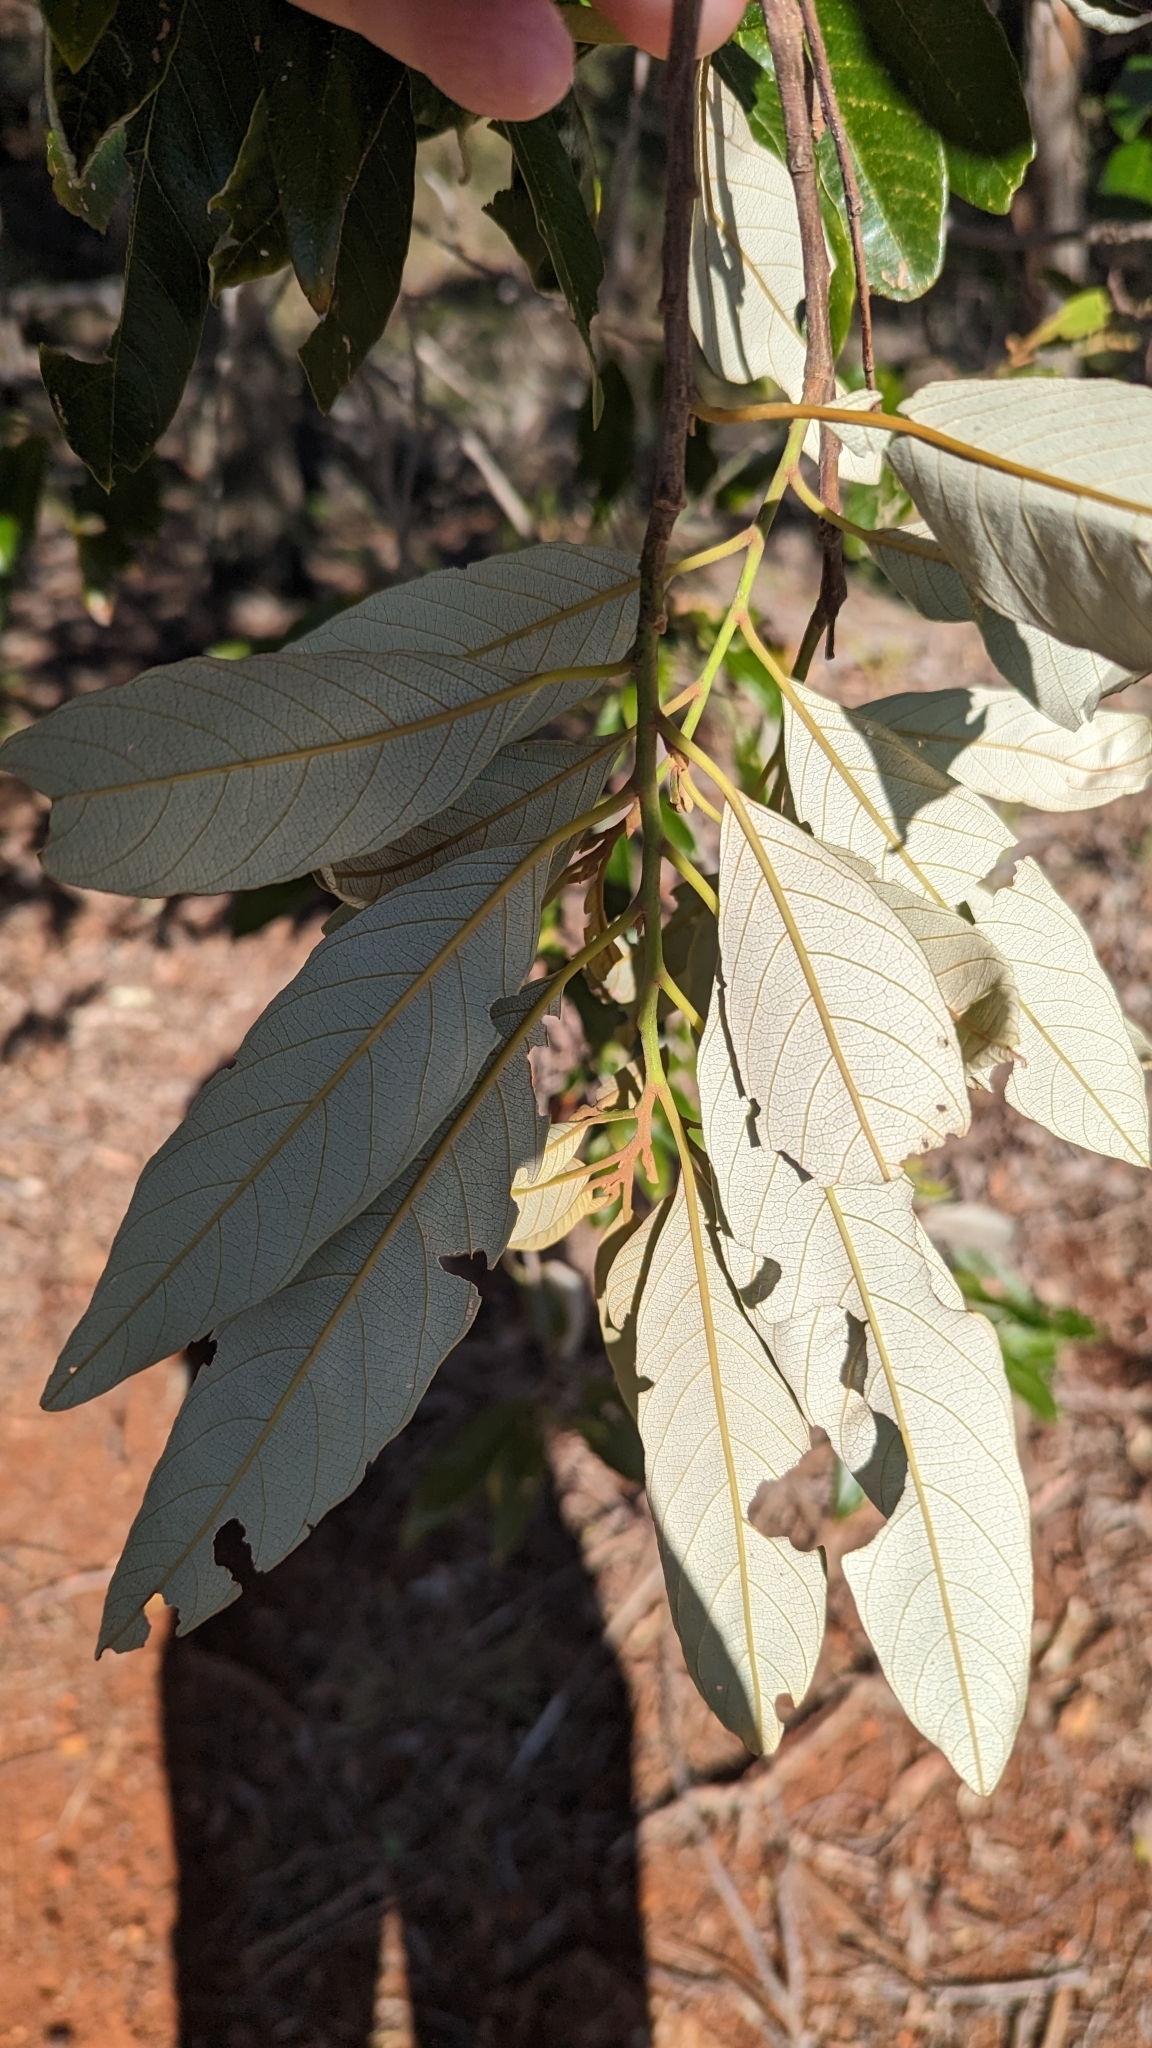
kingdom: Plantae
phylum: Tracheophyta
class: Magnoliopsida
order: Rosales
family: Rhamnaceae
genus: Alphitonia
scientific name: Alphitonia excelsa
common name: Red ash
